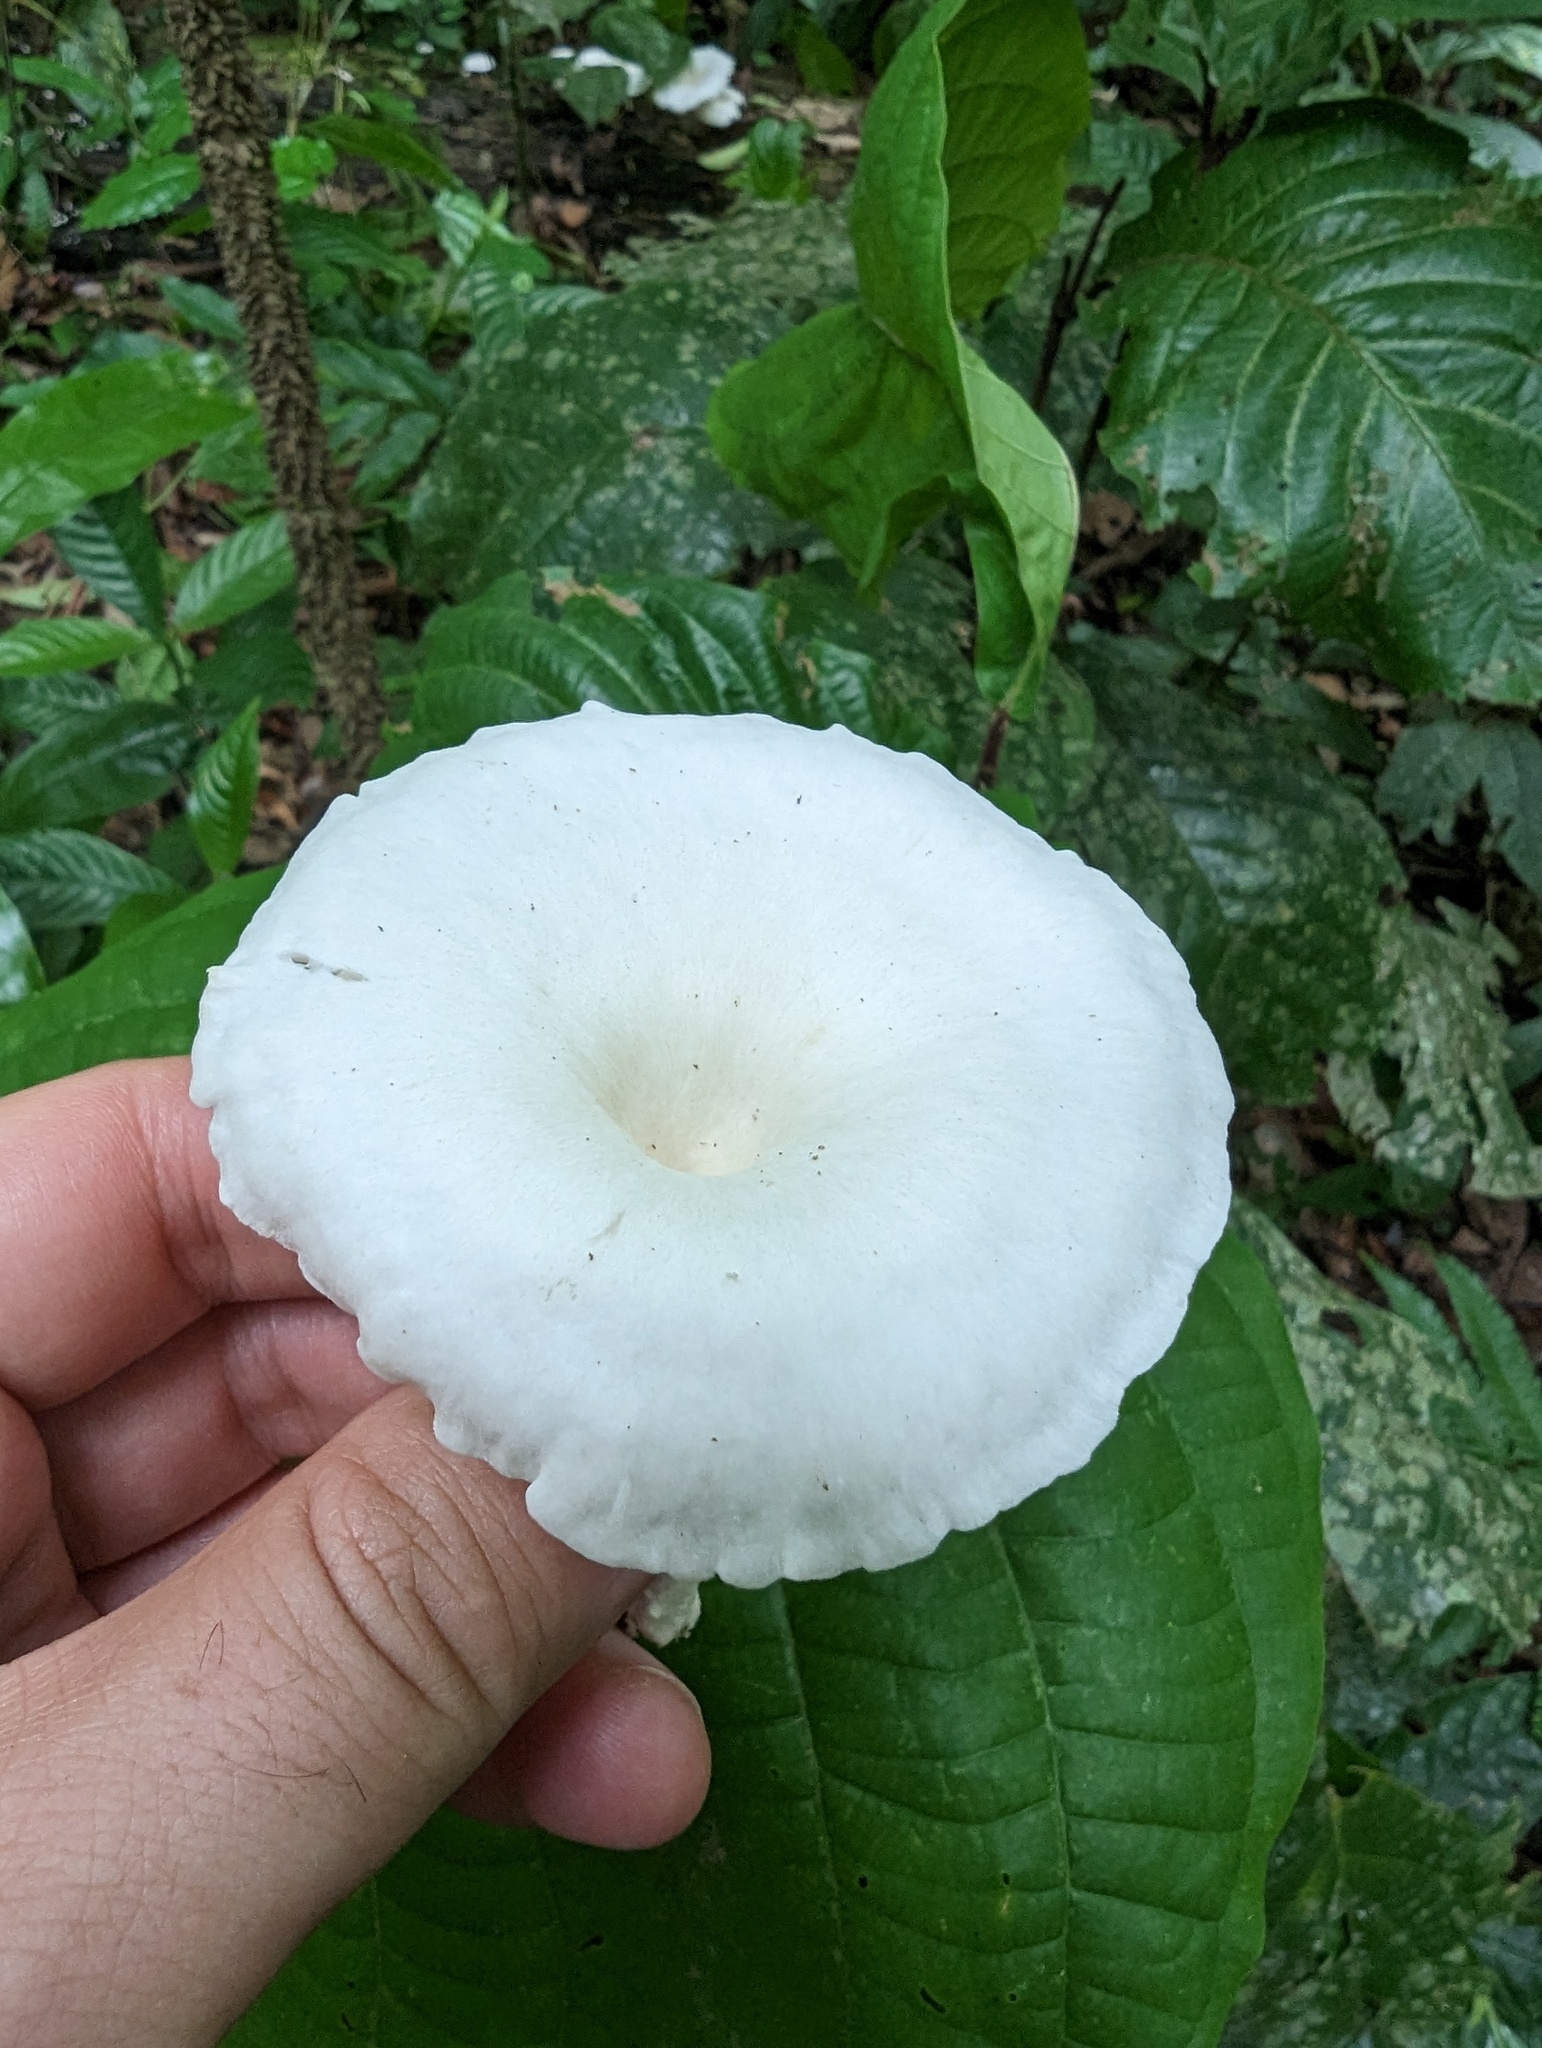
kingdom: Fungi
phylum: Basidiomycota
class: Agaricomycetes
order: Polyporales
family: Polyporaceae
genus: Lentinus
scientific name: Lentinus sajor-caju
